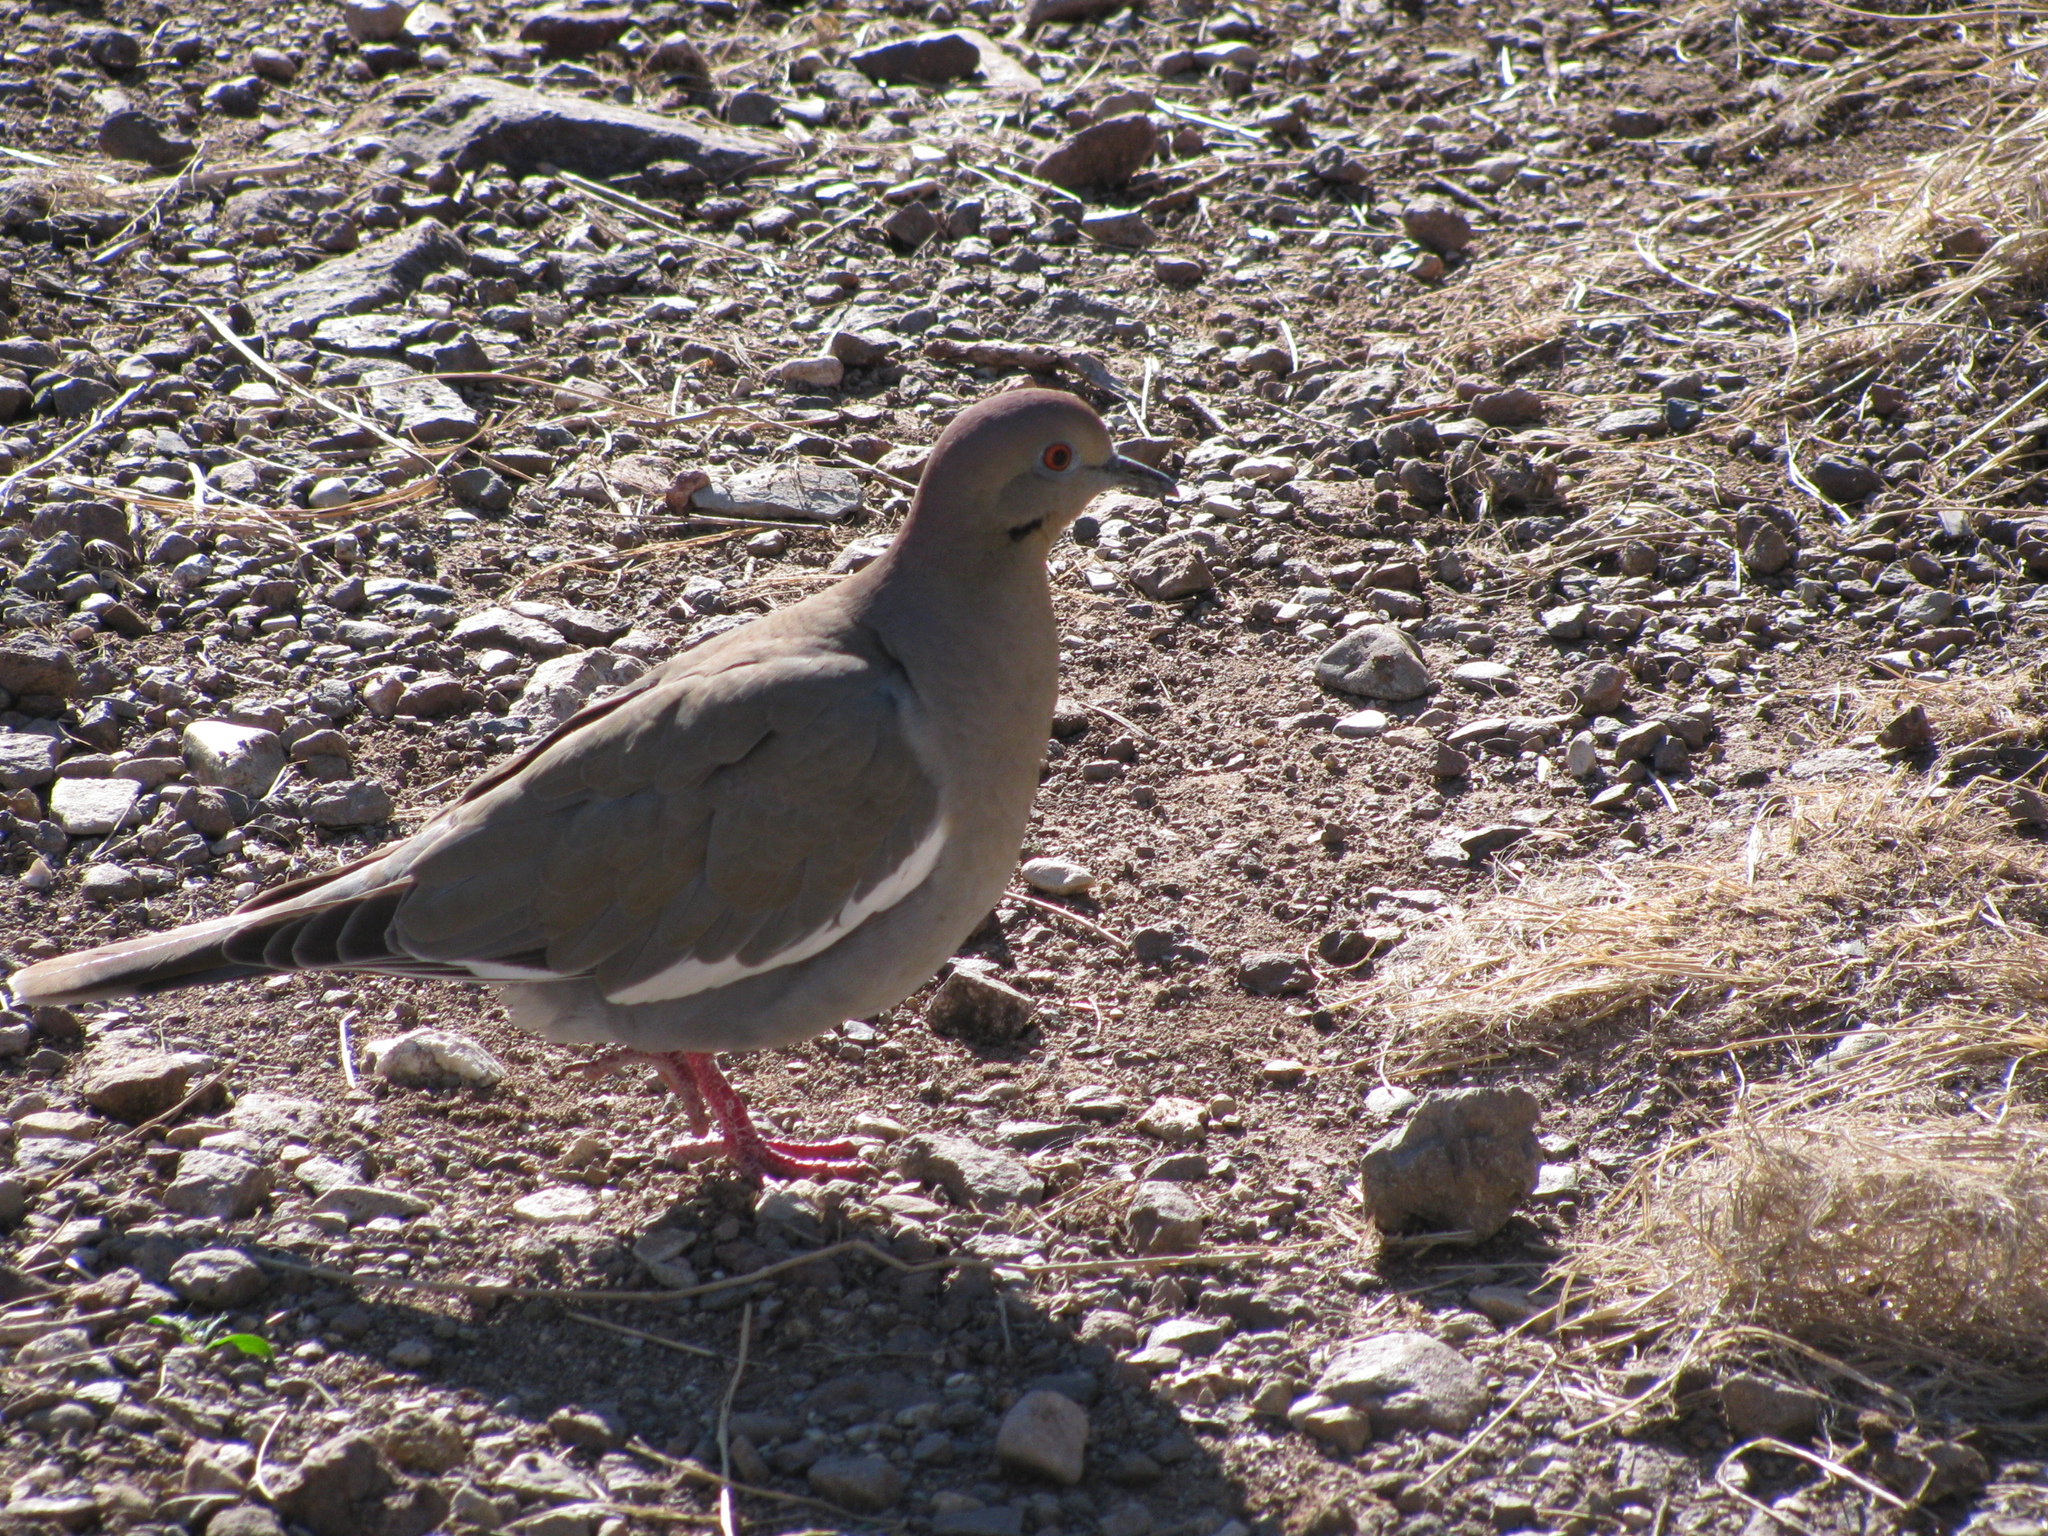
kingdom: Animalia
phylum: Chordata
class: Aves
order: Columbiformes
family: Columbidae
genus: Zenaida
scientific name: Zenaida asiatica
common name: White-winged dove
